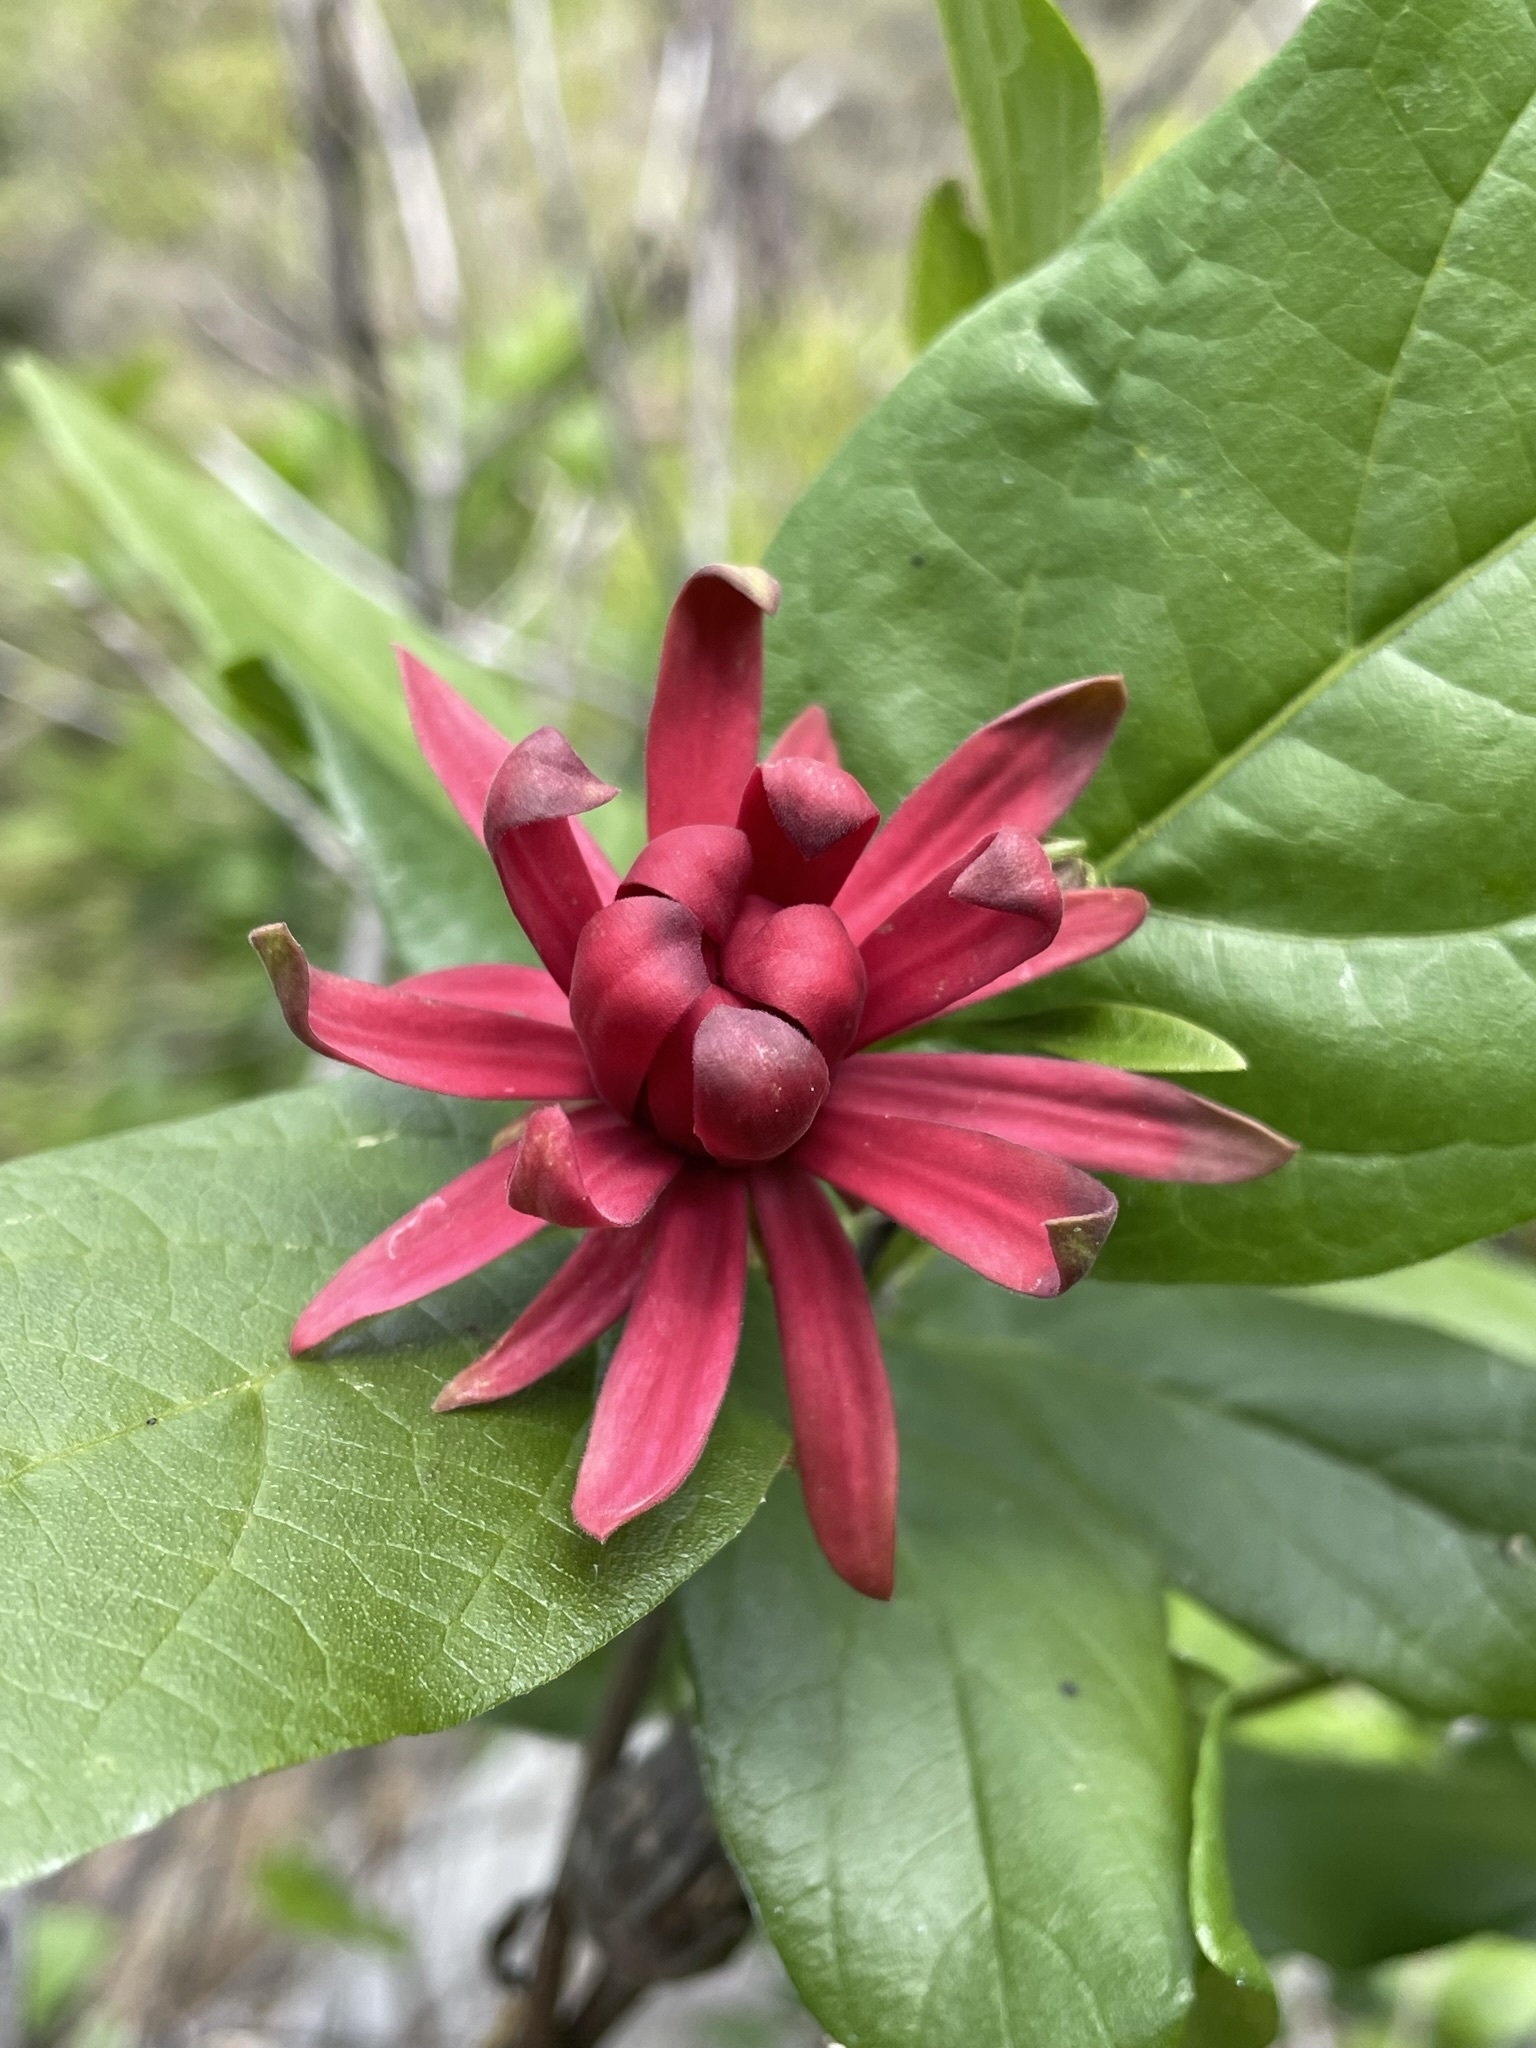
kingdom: Plantae
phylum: Tracheophyta
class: Magnoliopsida
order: Laurales
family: Calycanthaceae
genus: Calycanthus
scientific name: Calycanthus occidentalis
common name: California spicebush
